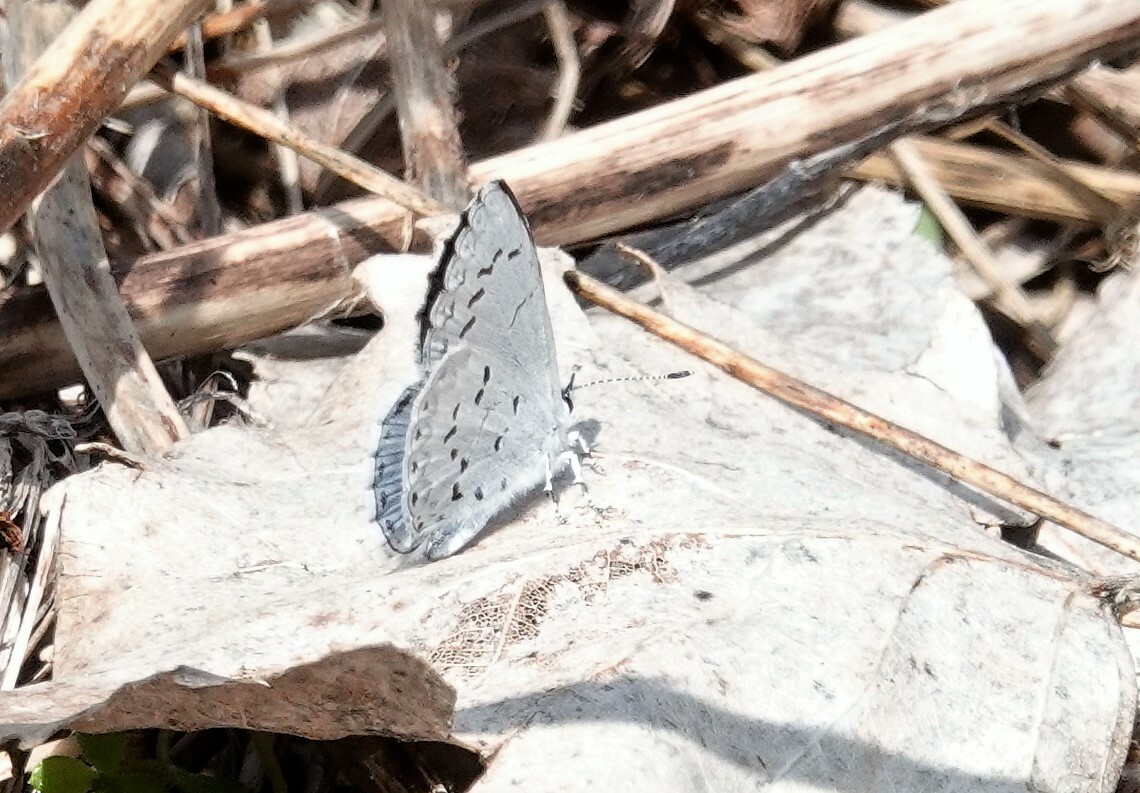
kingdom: Animalia
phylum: Arthropoda
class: Insecta
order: Lepidoptera
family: Lycaenidae
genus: Celastrina
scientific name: Celastrina lucia
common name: Lucia azure
